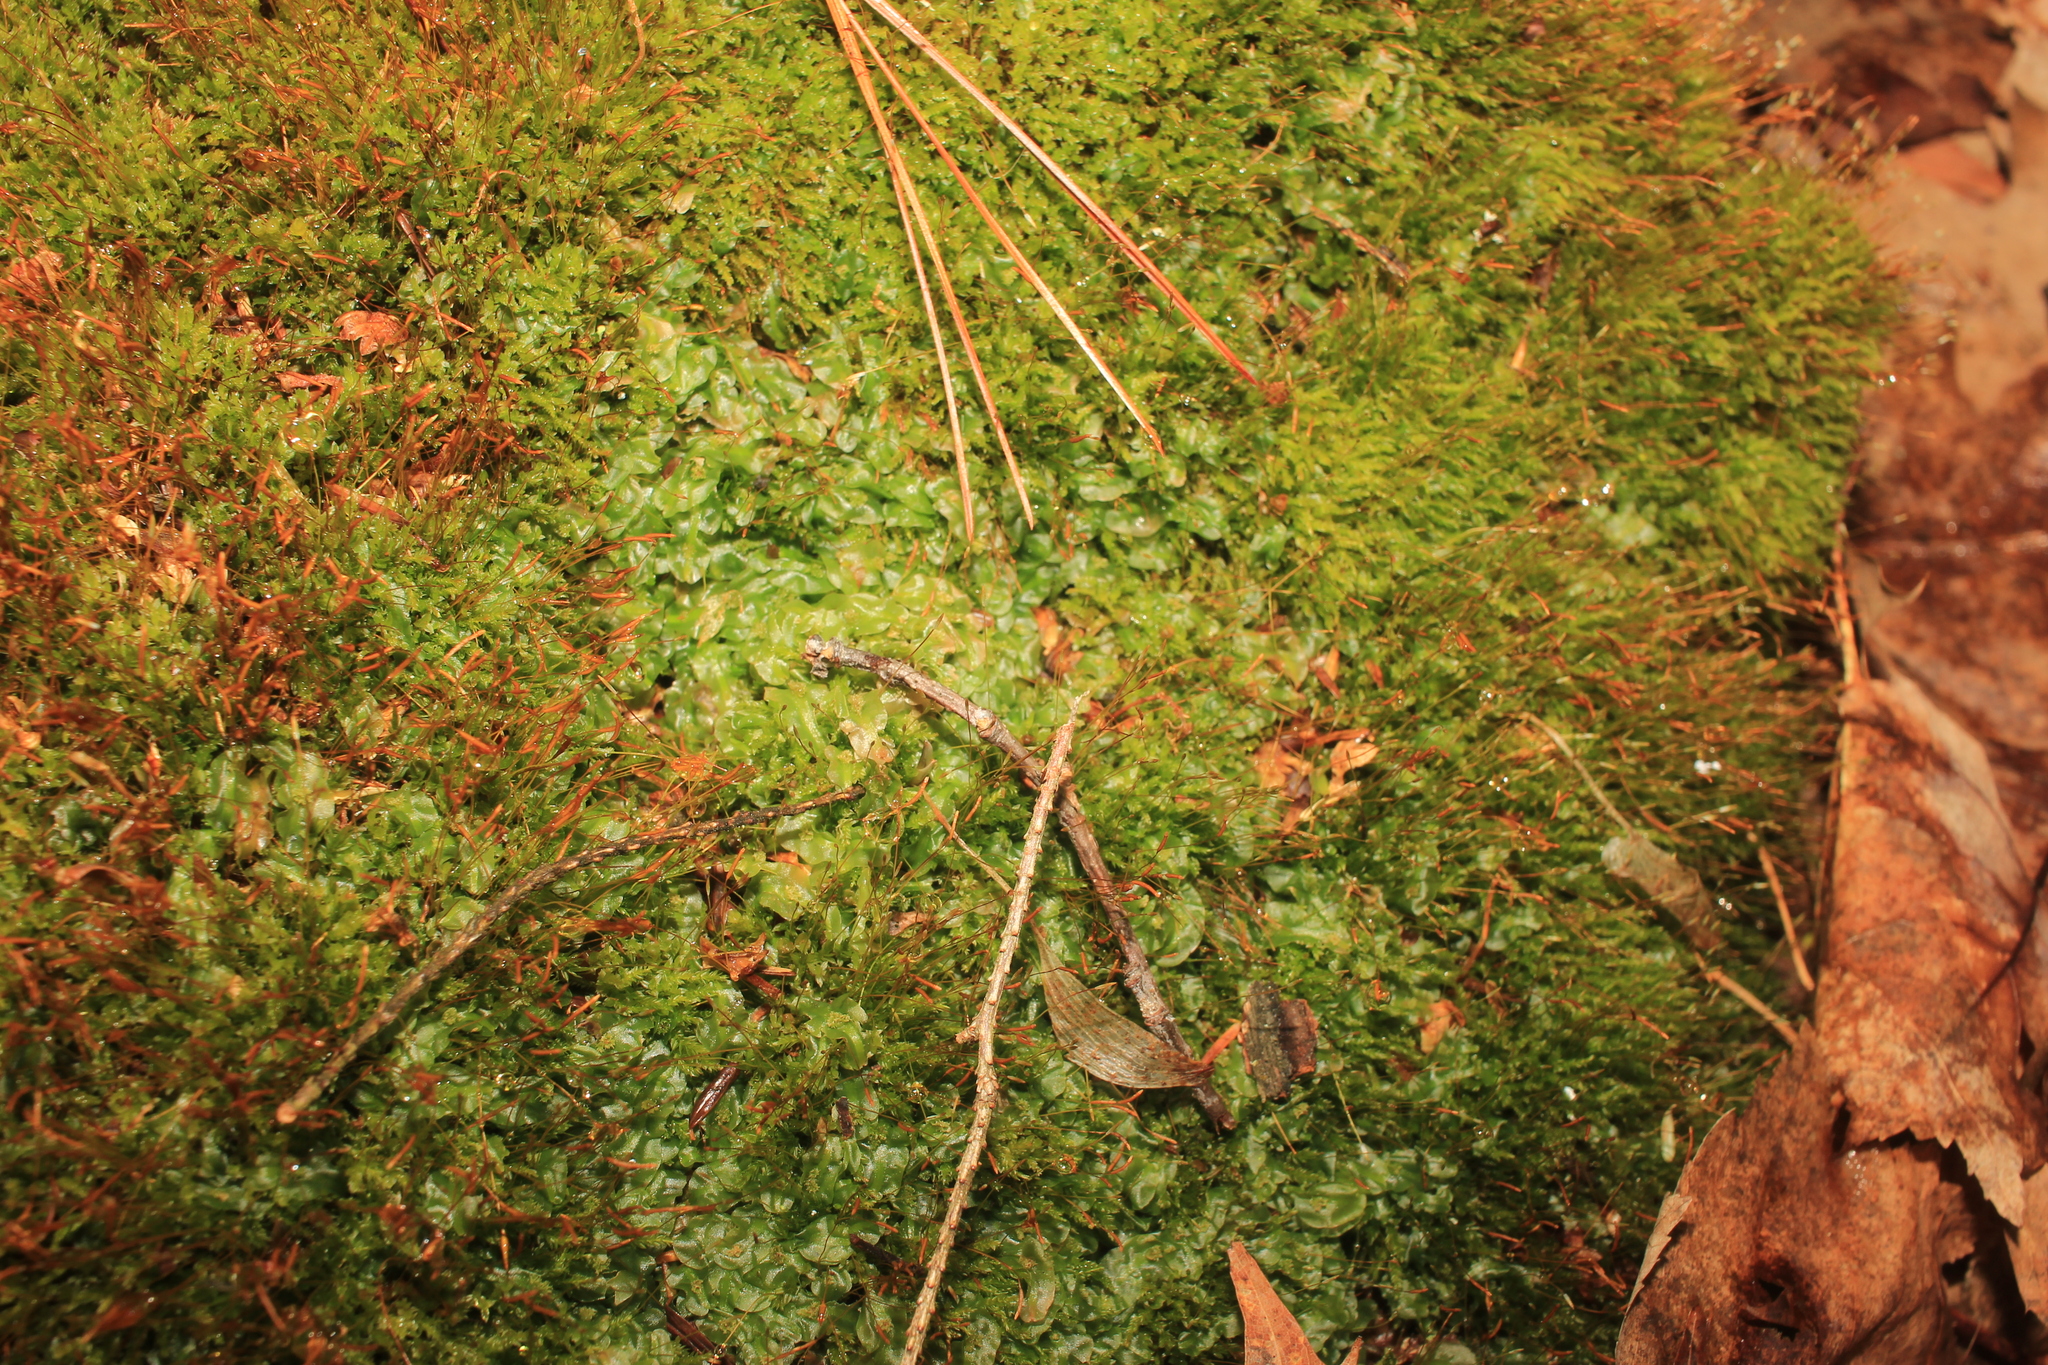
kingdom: Plantae
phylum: Marchantiophyta
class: Jungermanniopsida
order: Pallaviciniales
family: Pallaviciniaceae
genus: Pallavicinia
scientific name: Pallavicinia lyellii
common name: Veilwort
